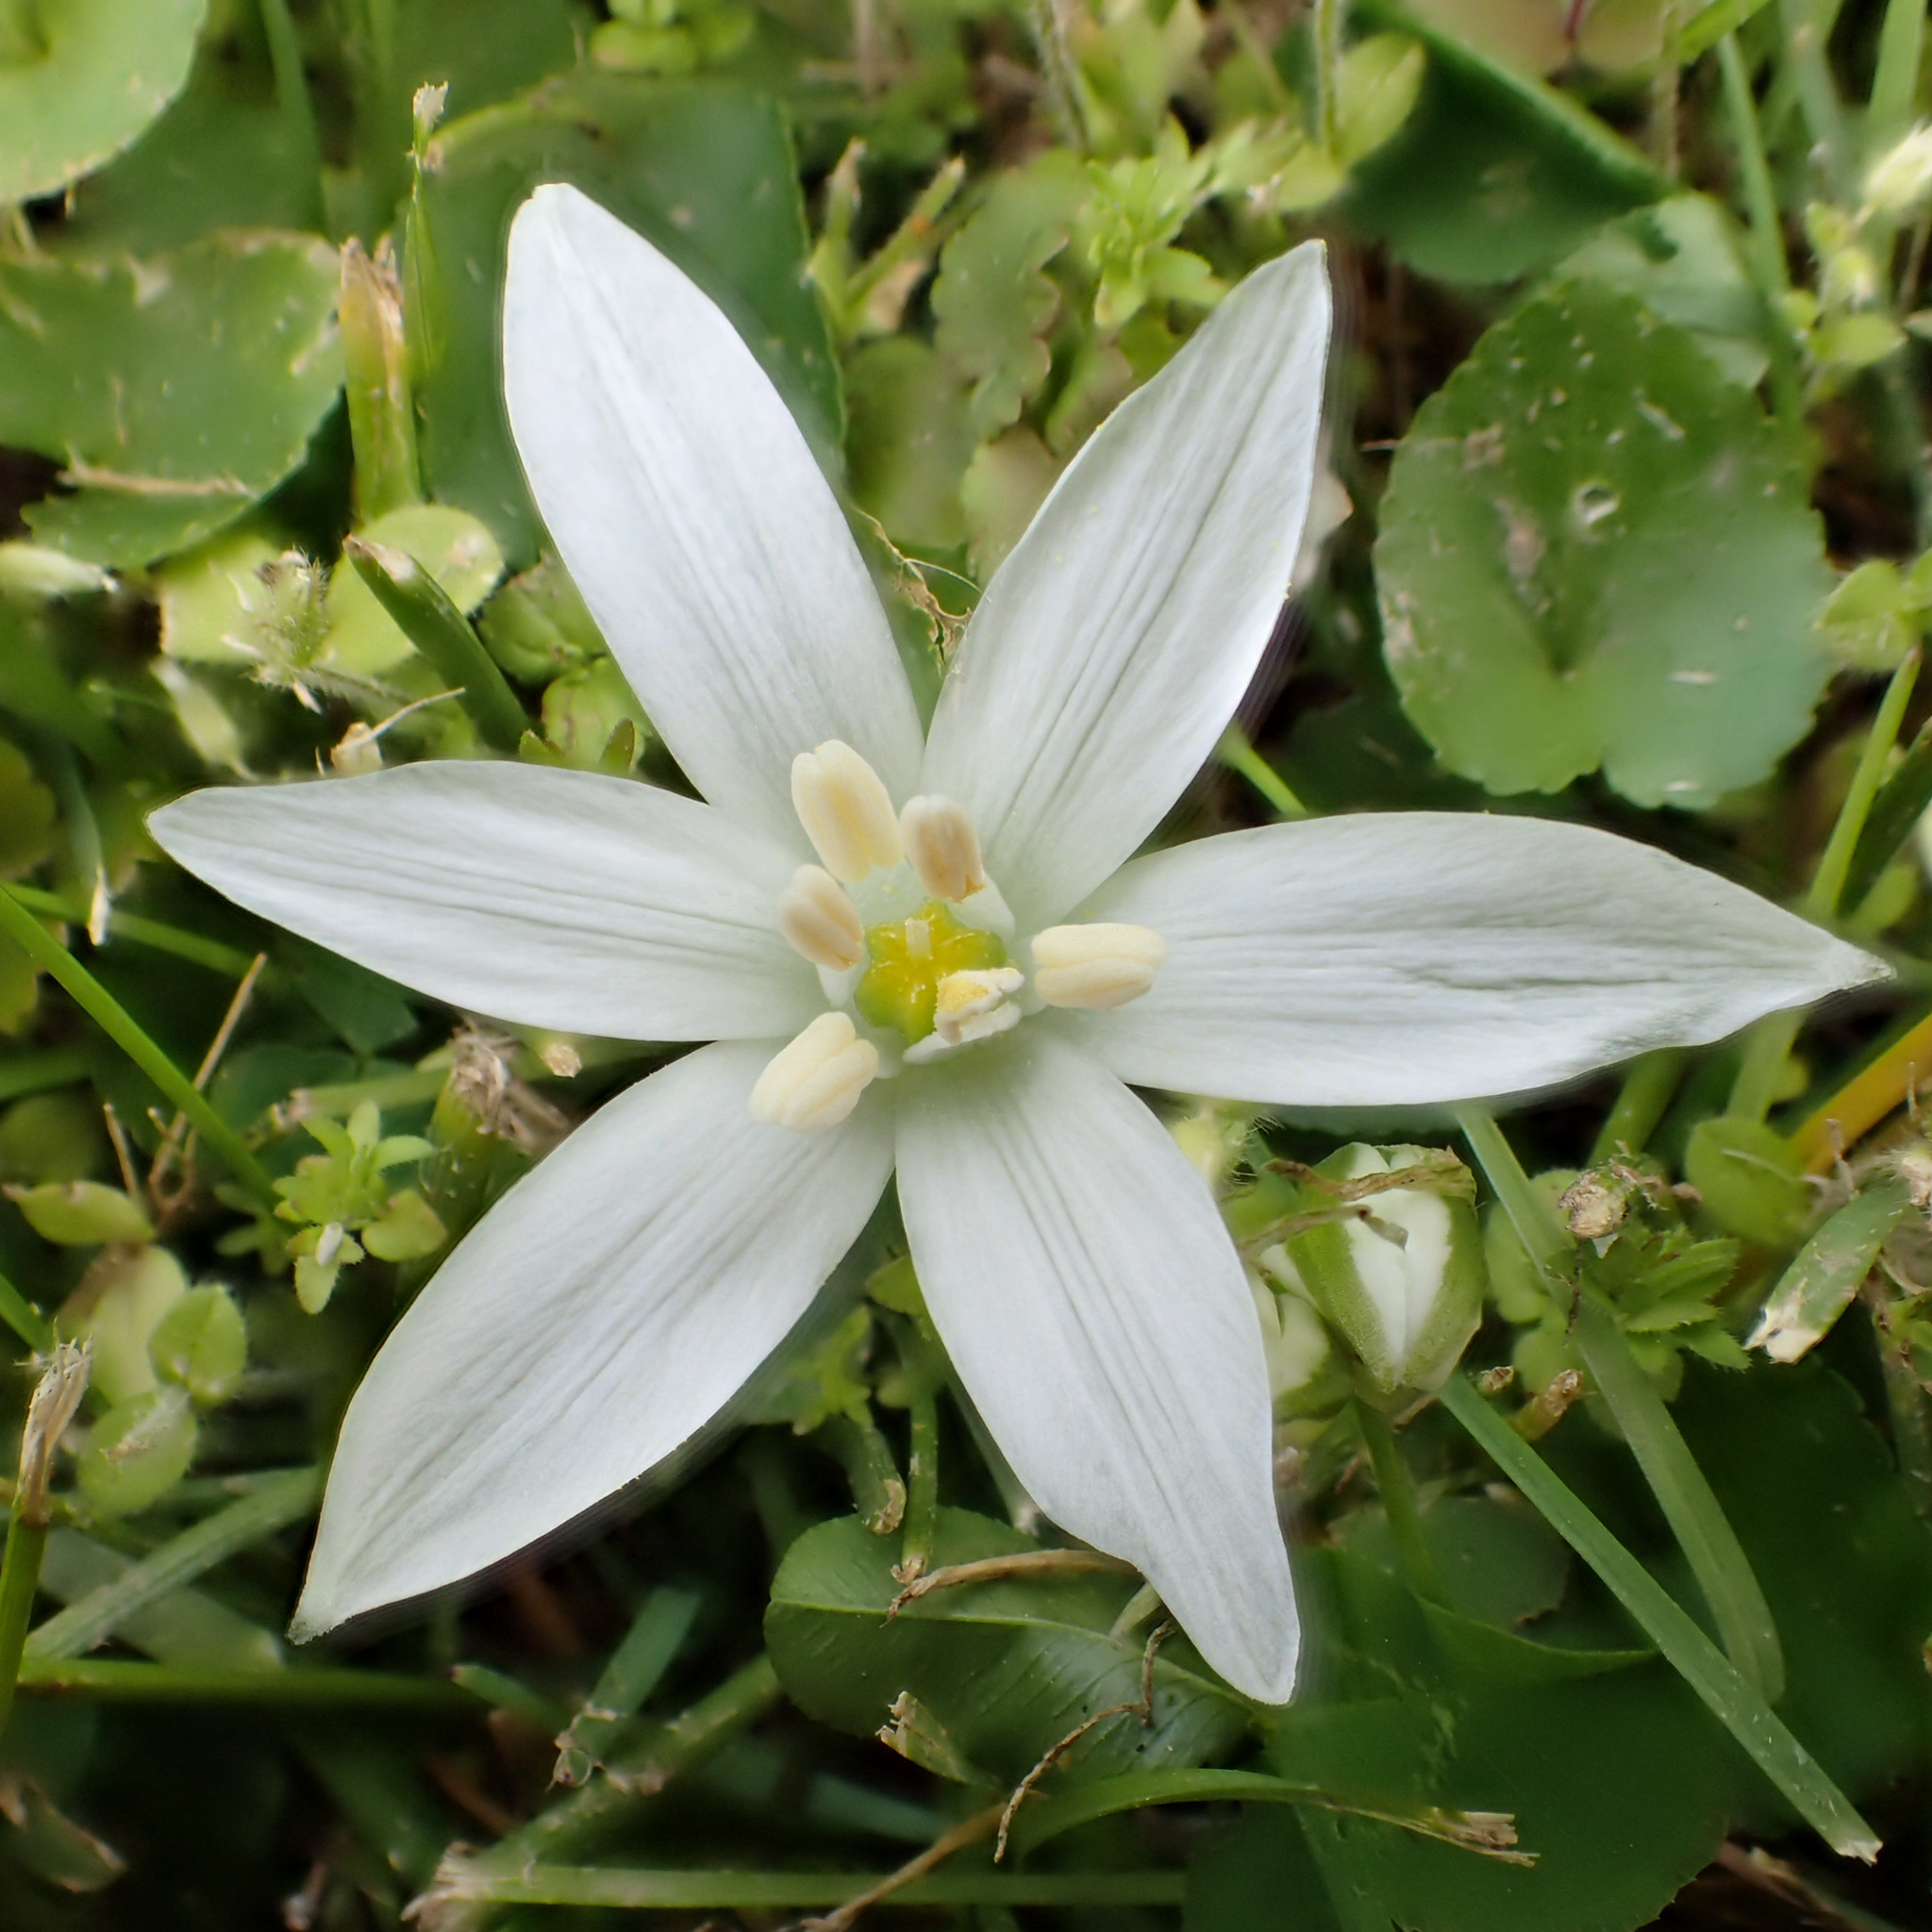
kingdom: Plantae
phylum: Tracheophyta
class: Liliopsida
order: Asparagales
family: Asparagaceae
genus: Ornithogalum
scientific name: Ornithogalum umbellatum
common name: Garden star-of-bethlehem
